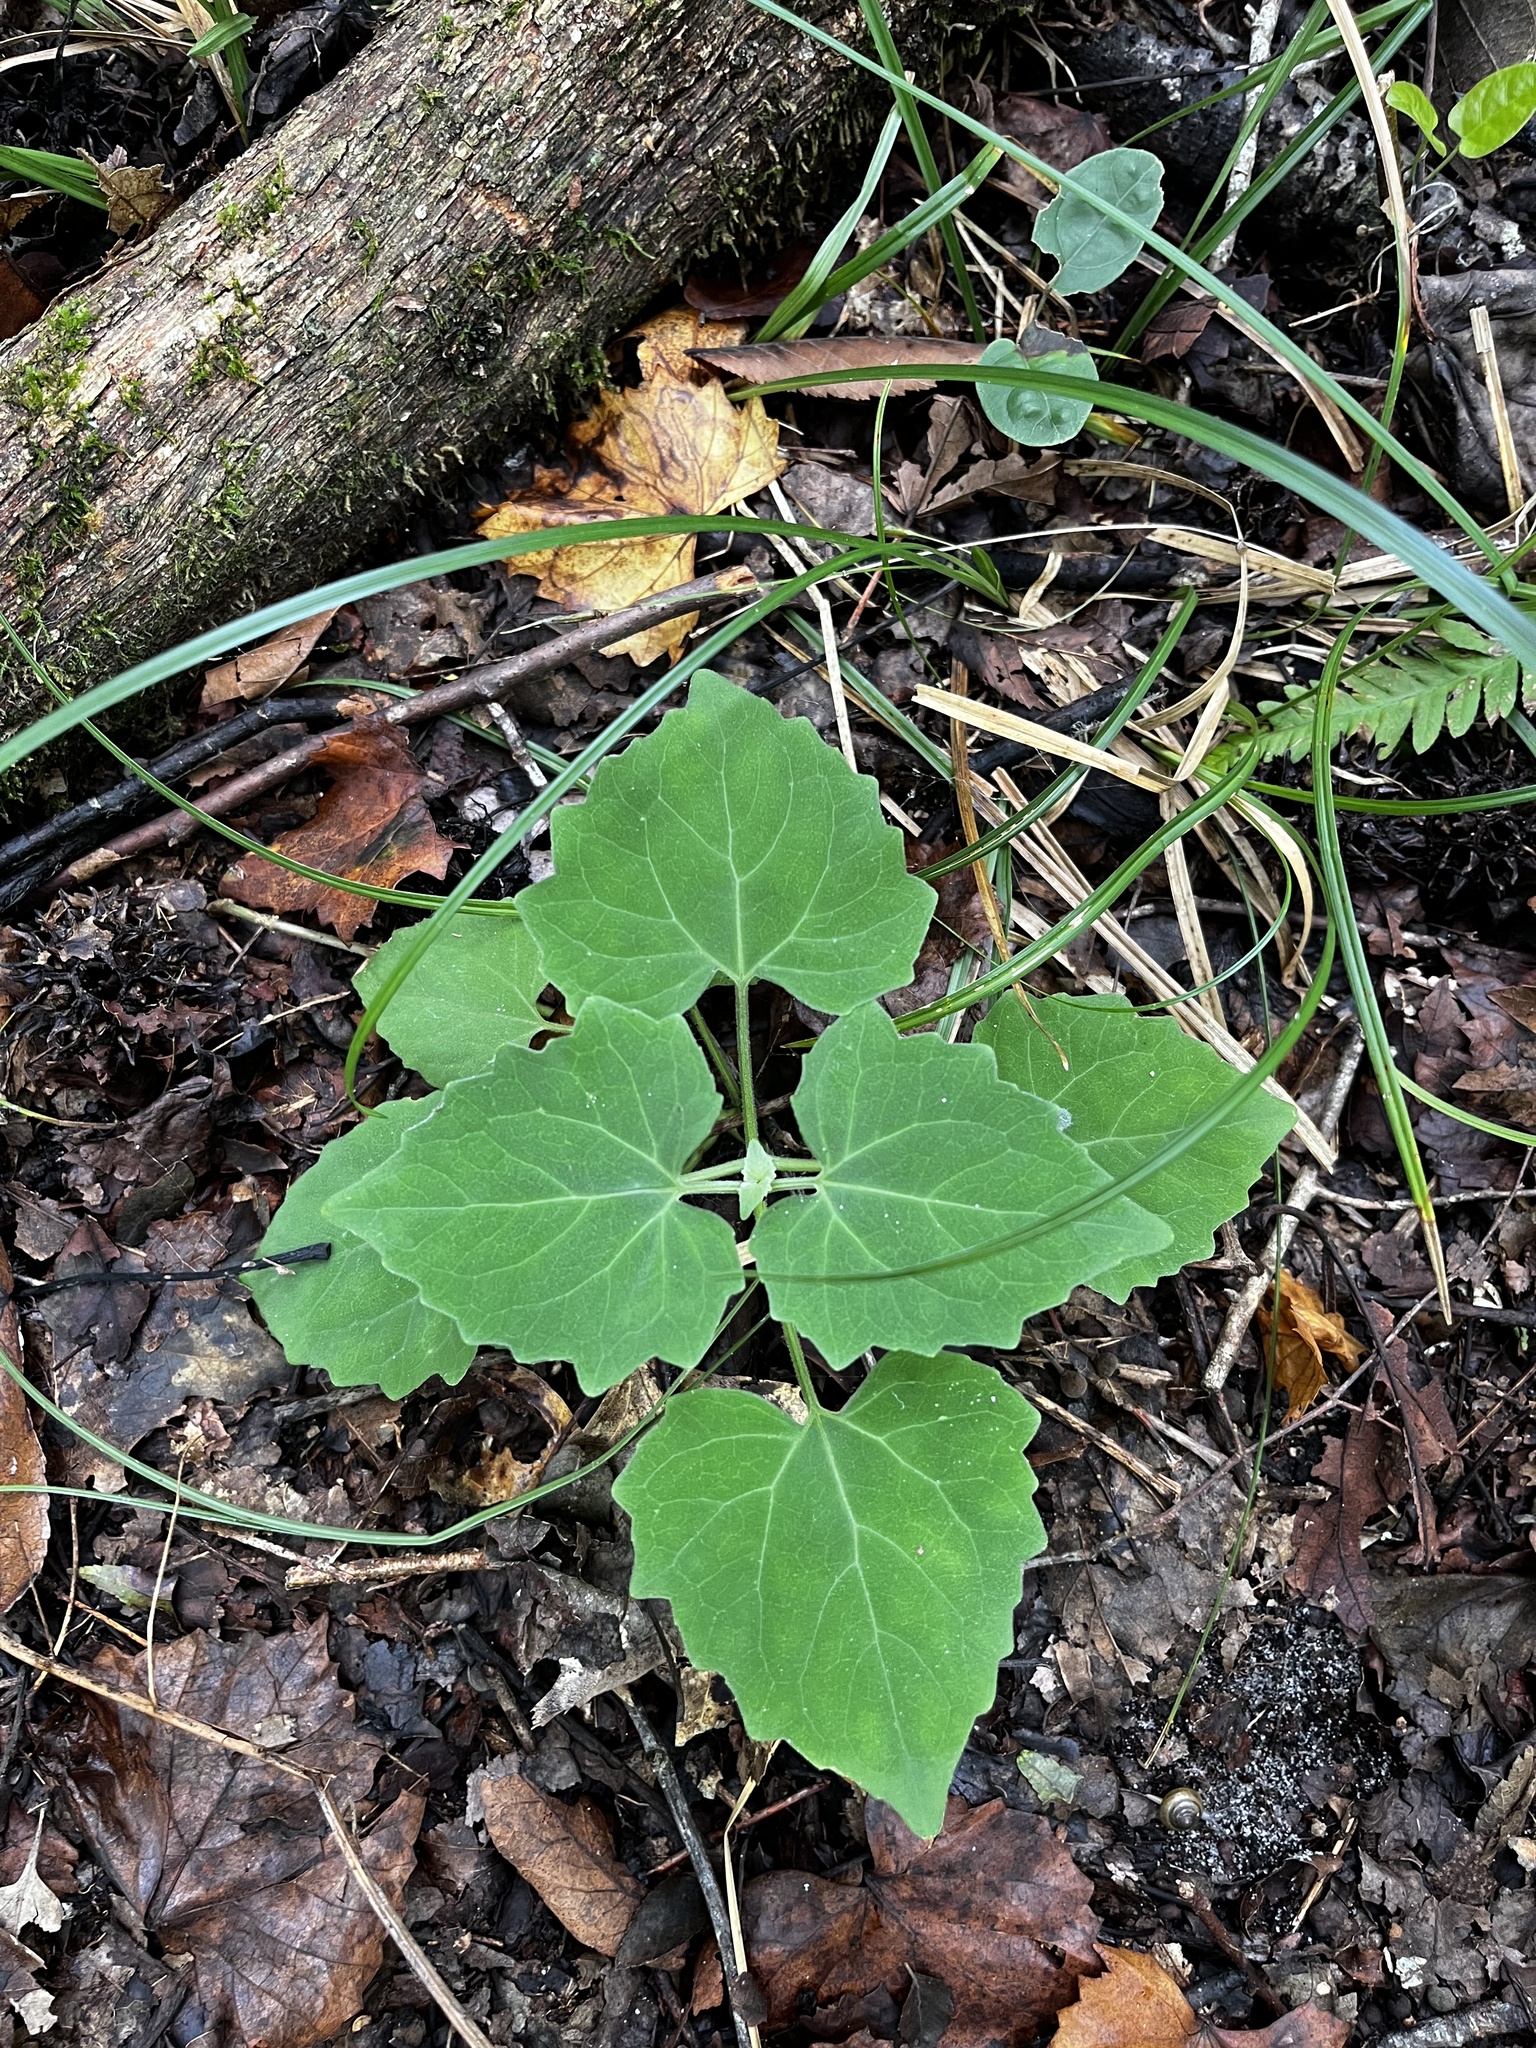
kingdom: Plantae
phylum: Tracheophyta
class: Magnoliopsida
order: Asterales
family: Asteraceae
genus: Mikania
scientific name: Mikania cordifolia
